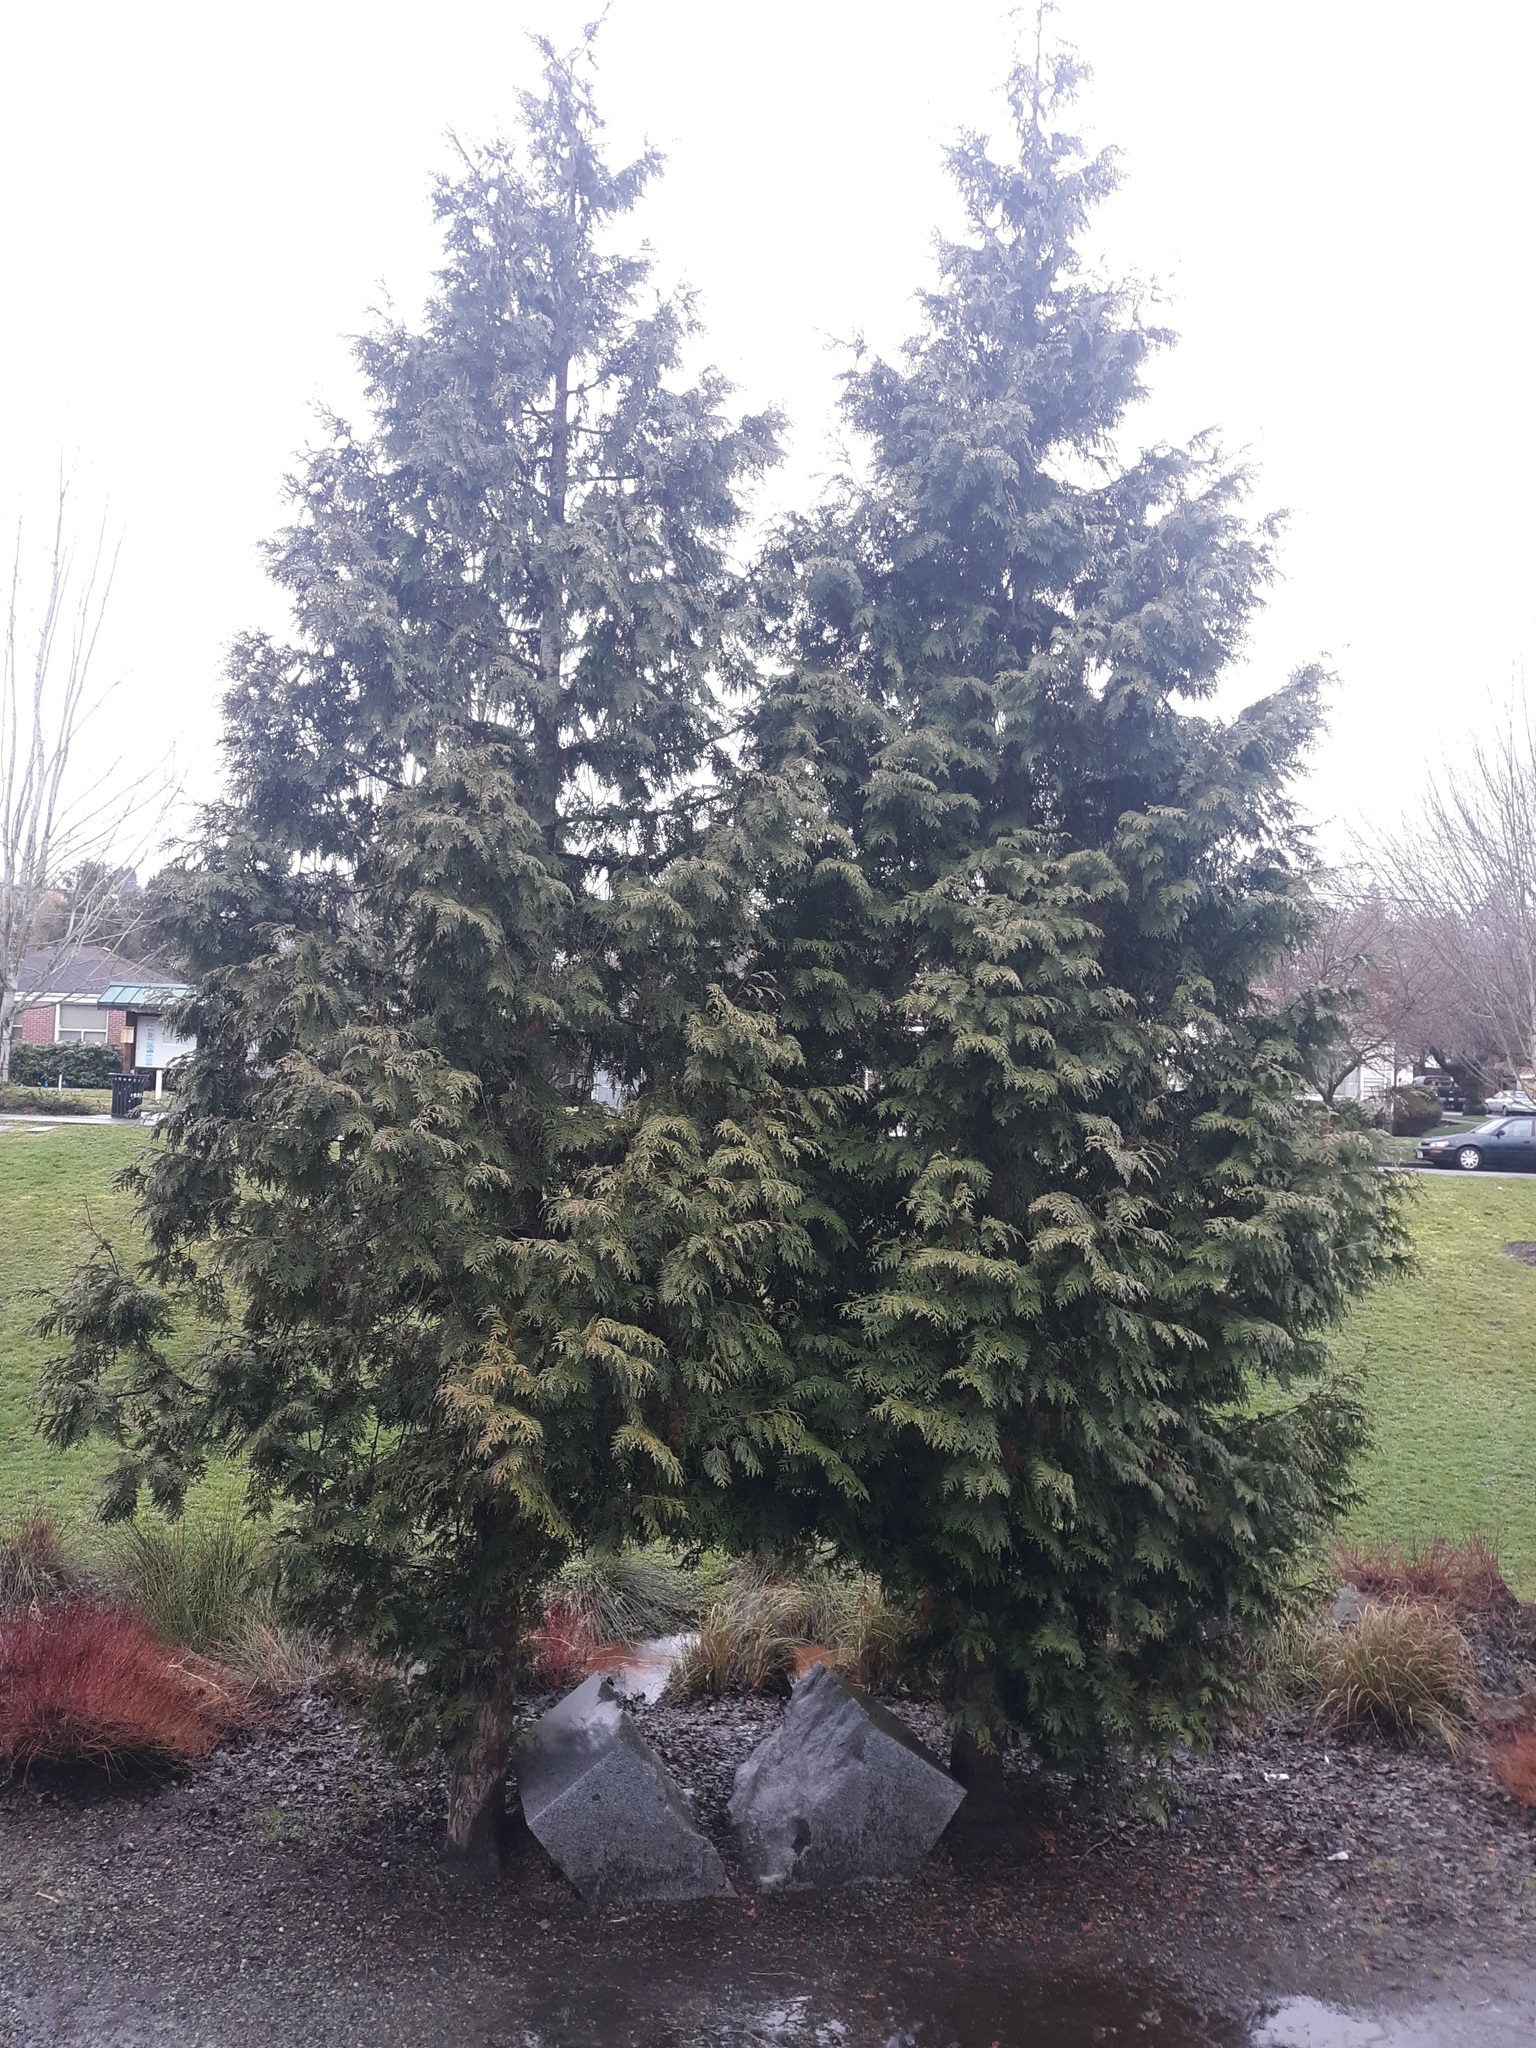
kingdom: Plantae
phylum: Tracheophyta
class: Pinopsida
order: Pinales
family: Cupressaceae
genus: Thuja
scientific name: Thuja plicata
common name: Western red-cedar
